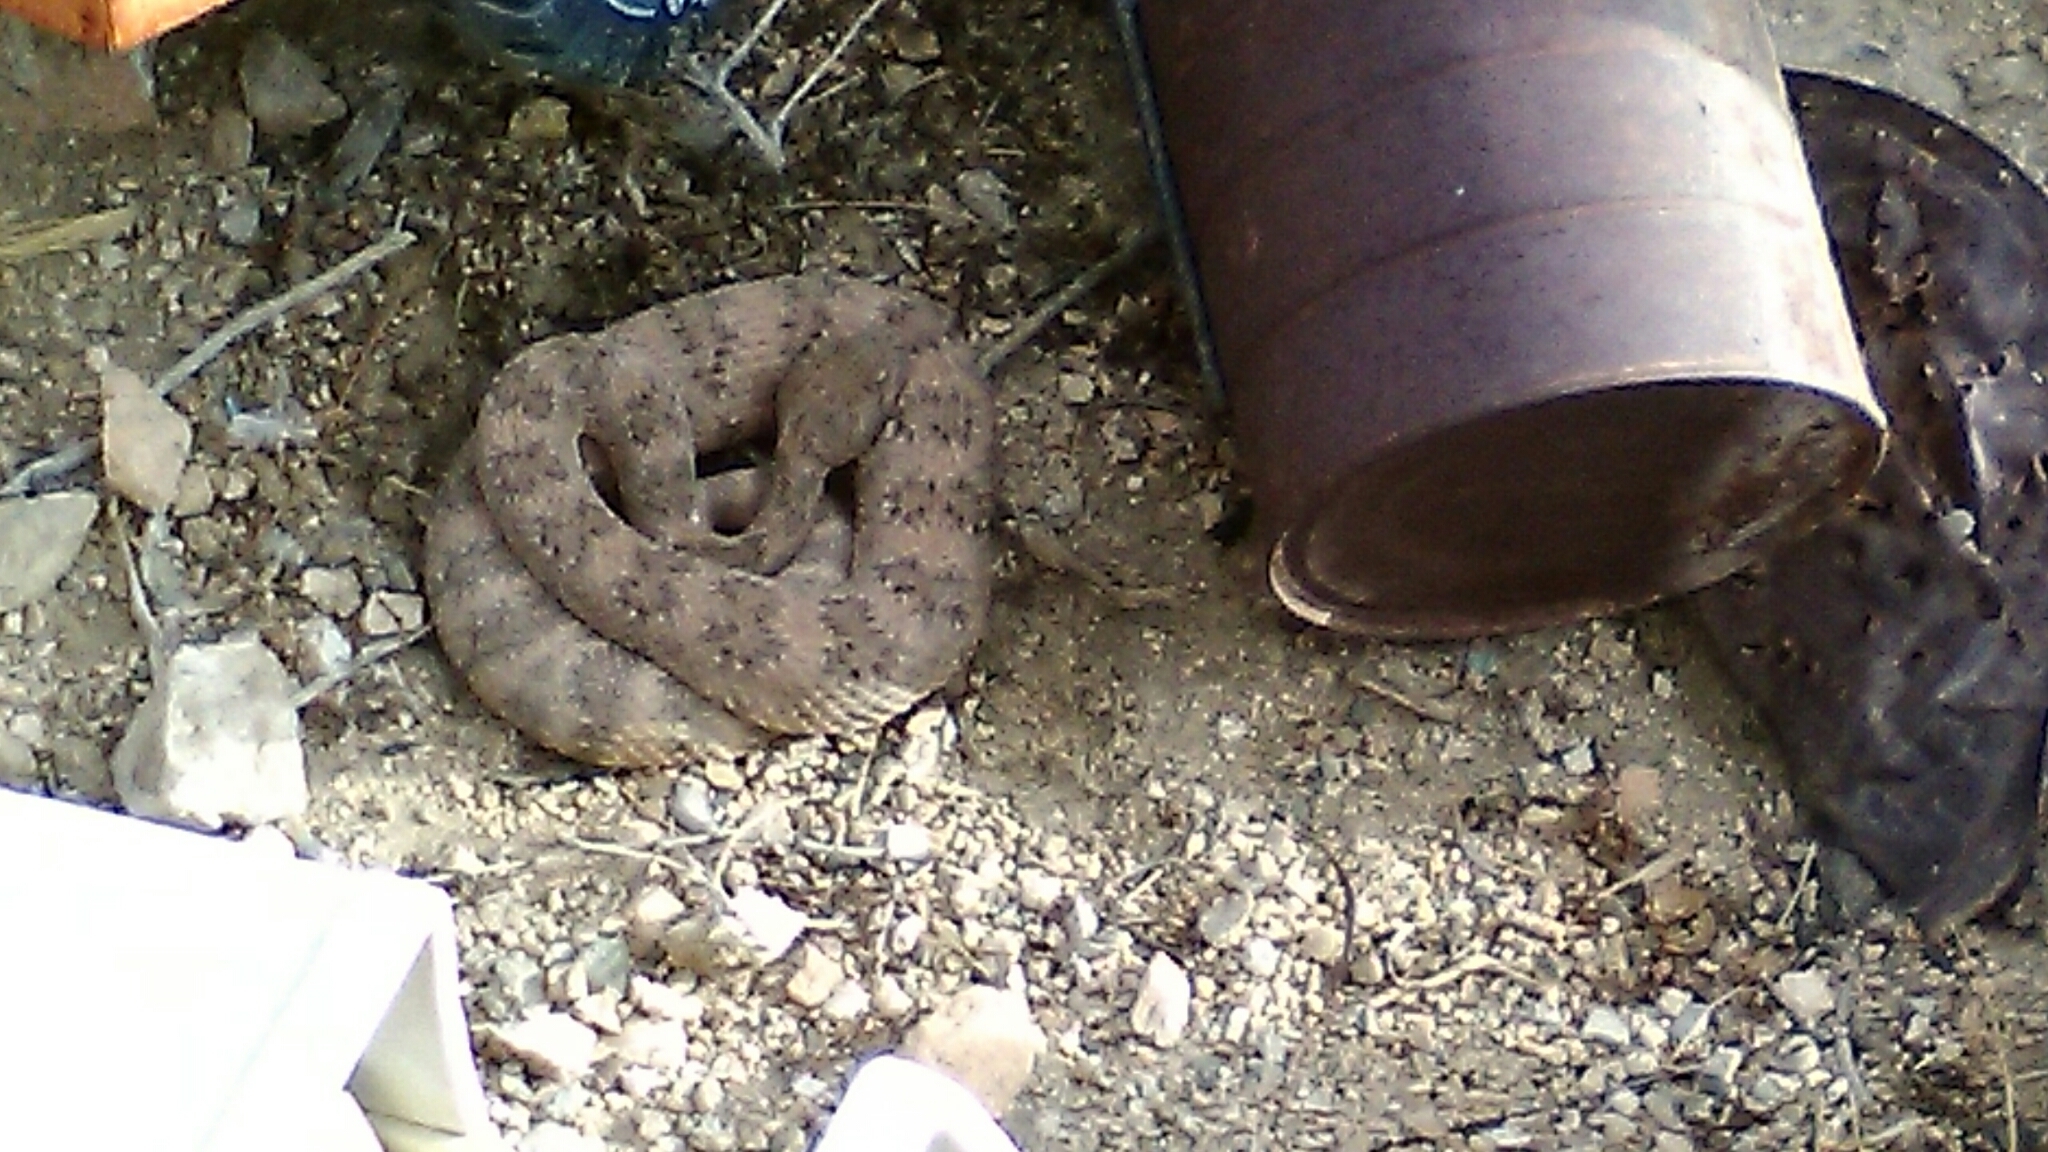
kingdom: Animalia
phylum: Chordata
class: Squamata
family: Viperidae
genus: Crotalus
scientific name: Crotalus pyrrhus
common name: Southwestern speckled rattlesnake
